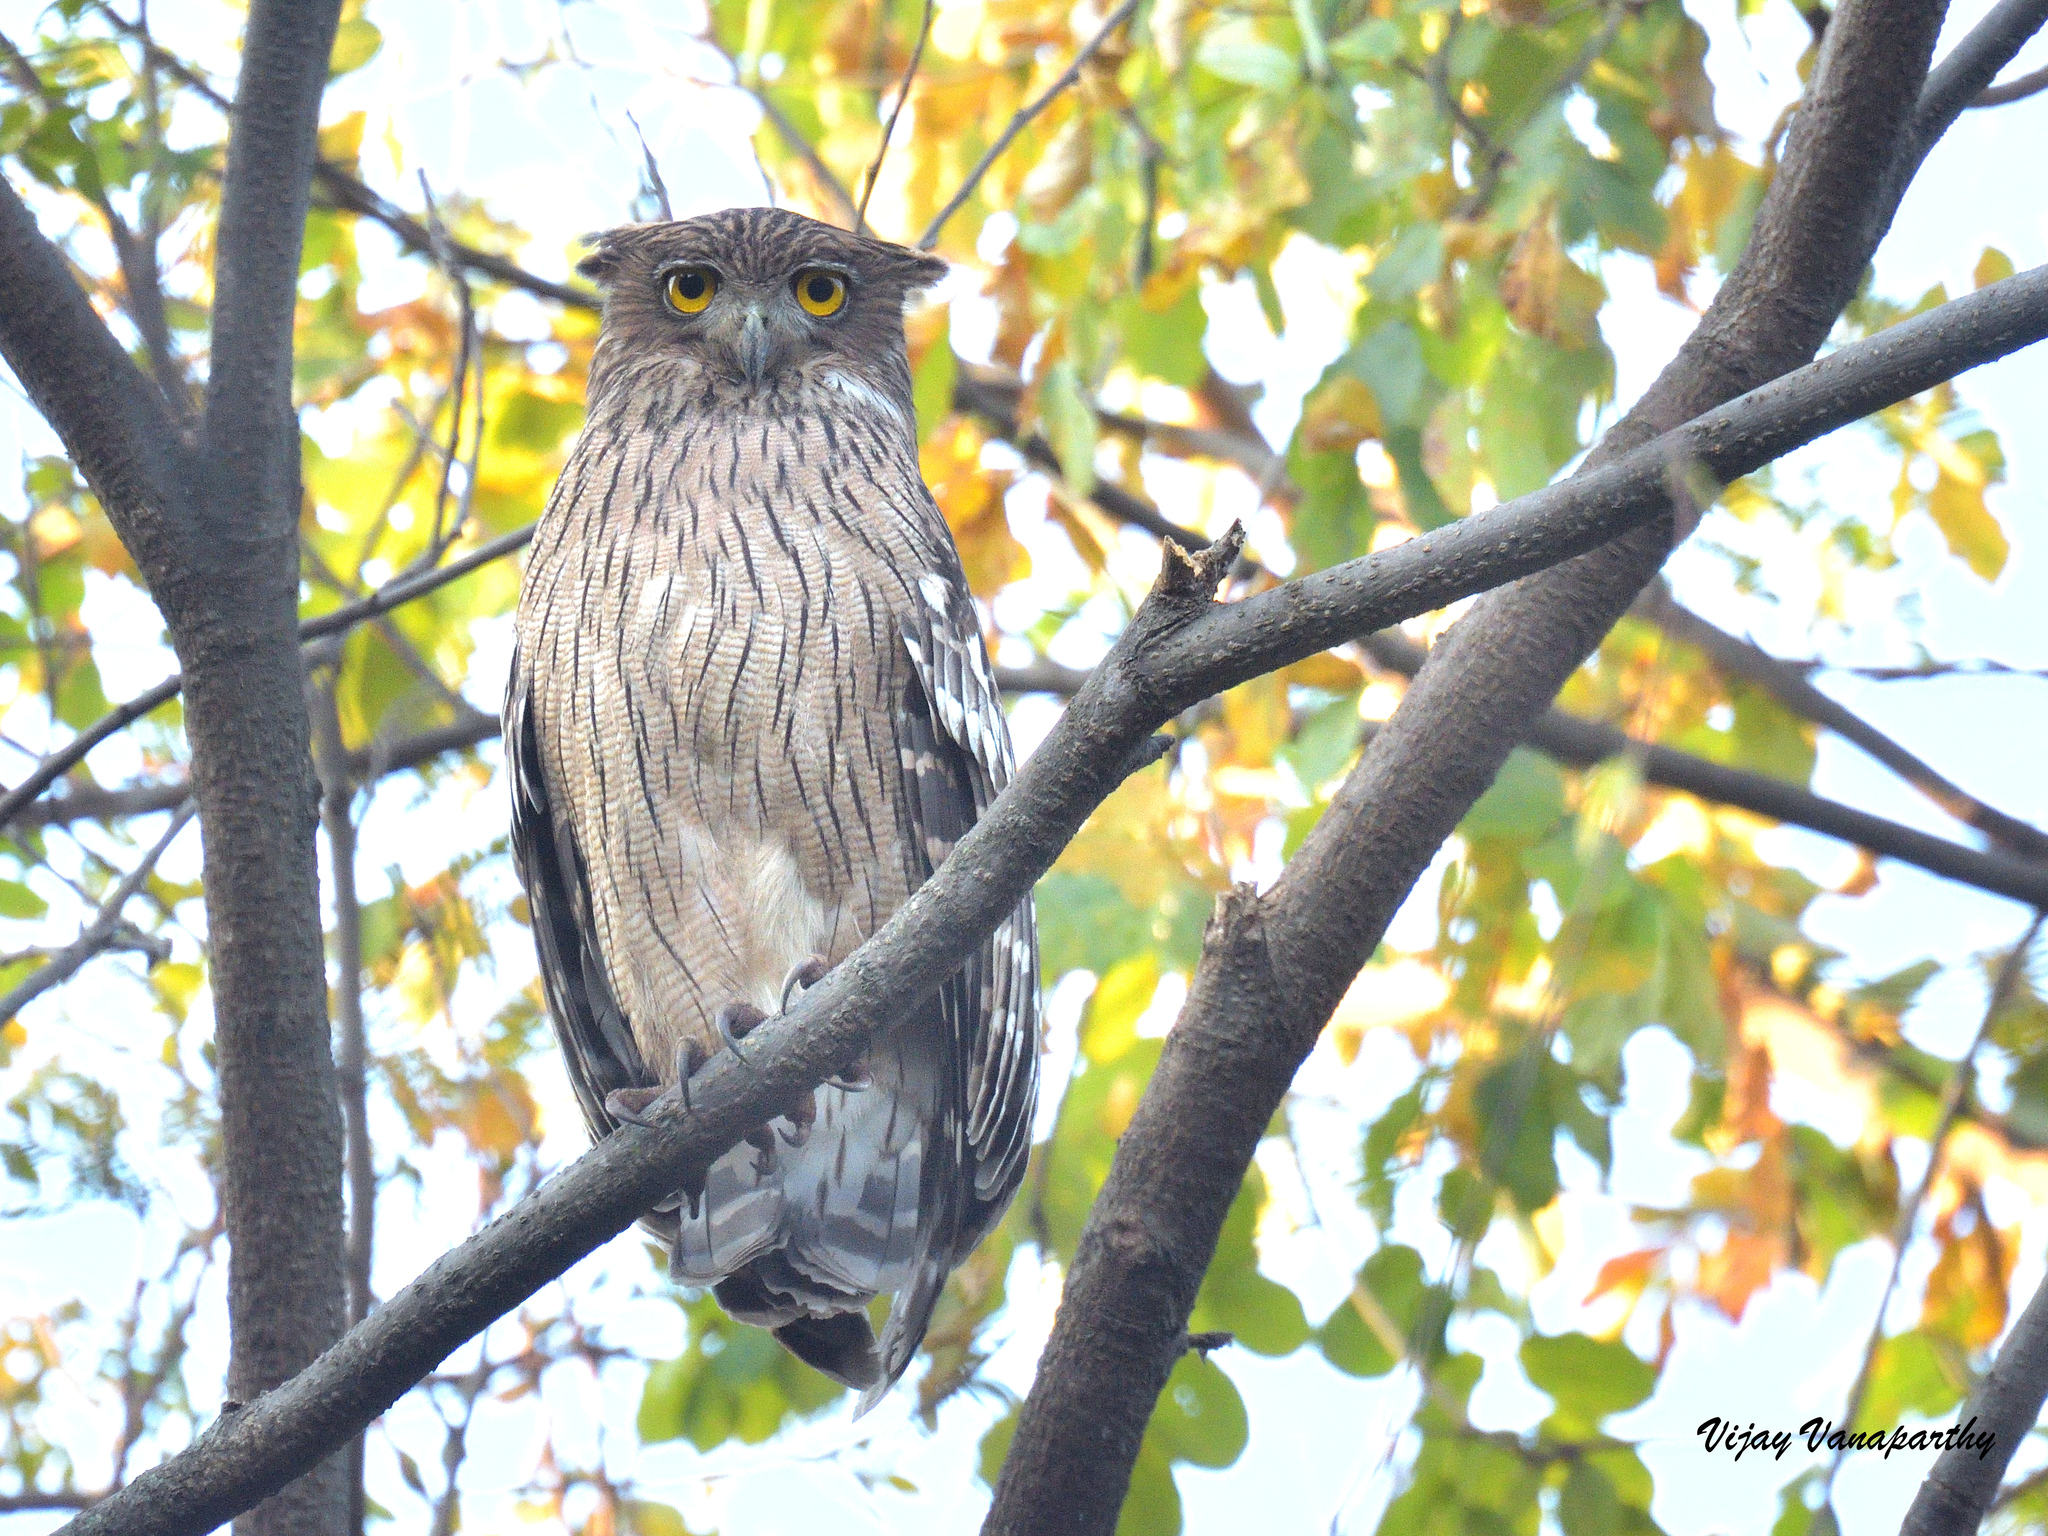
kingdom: Animalia
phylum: Chordata
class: Aves
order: Strigiformes
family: Strigidae
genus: Ketupa
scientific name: Ketupa zeylonensis
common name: Brown fish owl
